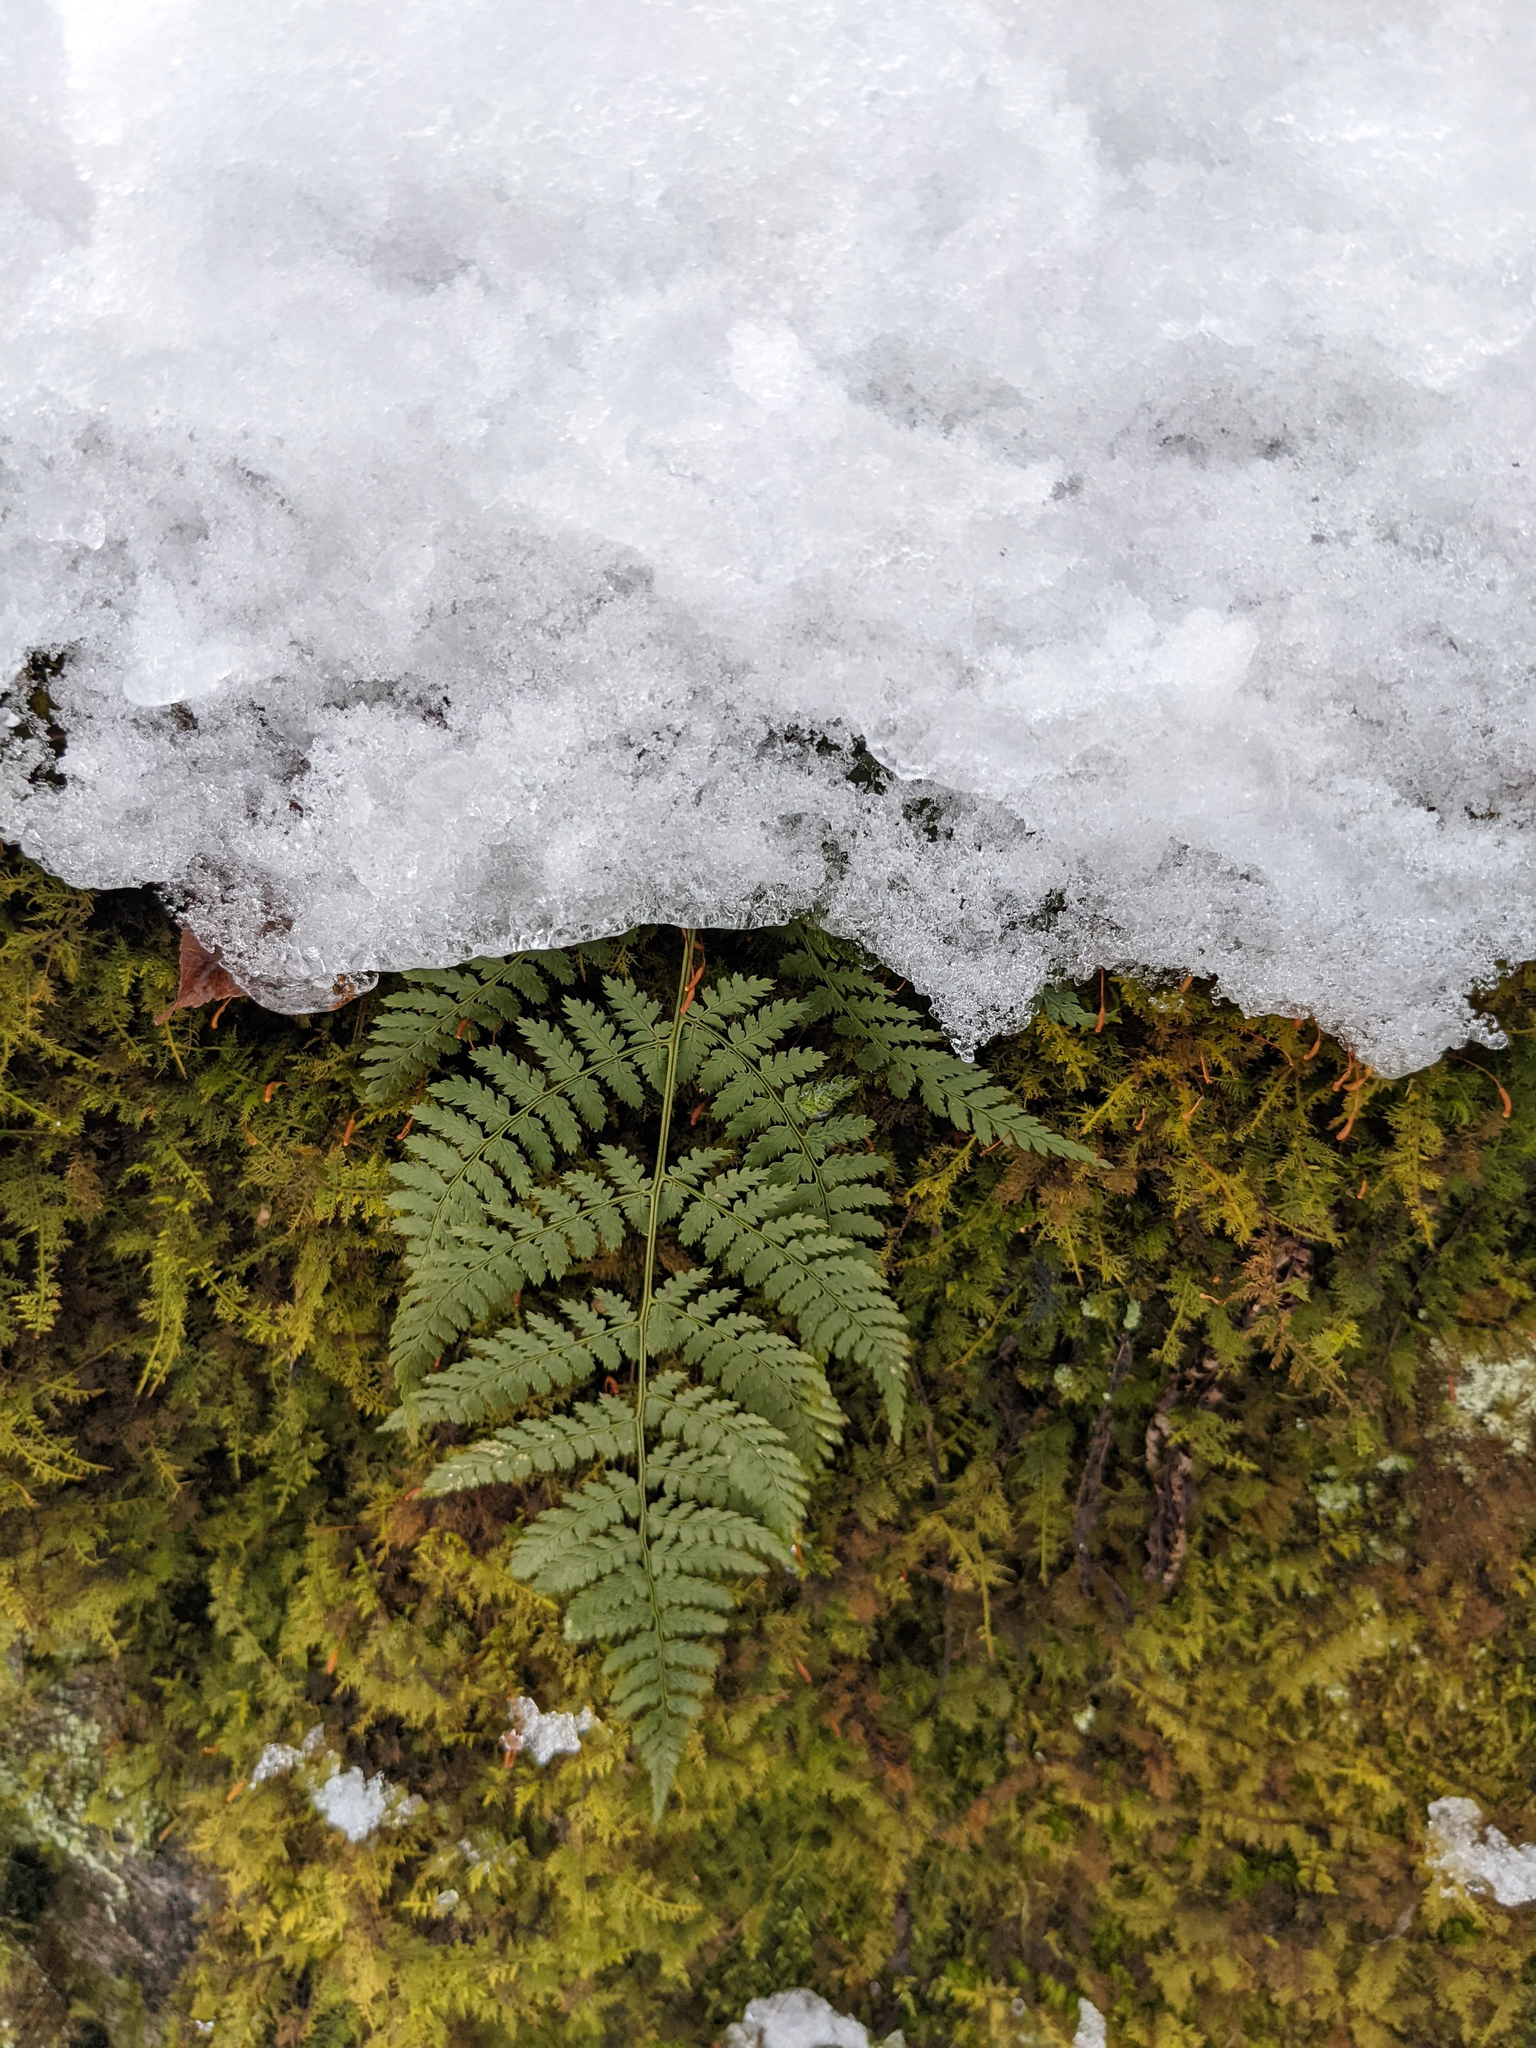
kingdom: Plantae
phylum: Tracheophyta
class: Polypodiopsida
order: Polypodiales
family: Dryopteridaceae
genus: Dryopteris
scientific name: Dryopteris intermedia
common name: Evergreen wood fern
